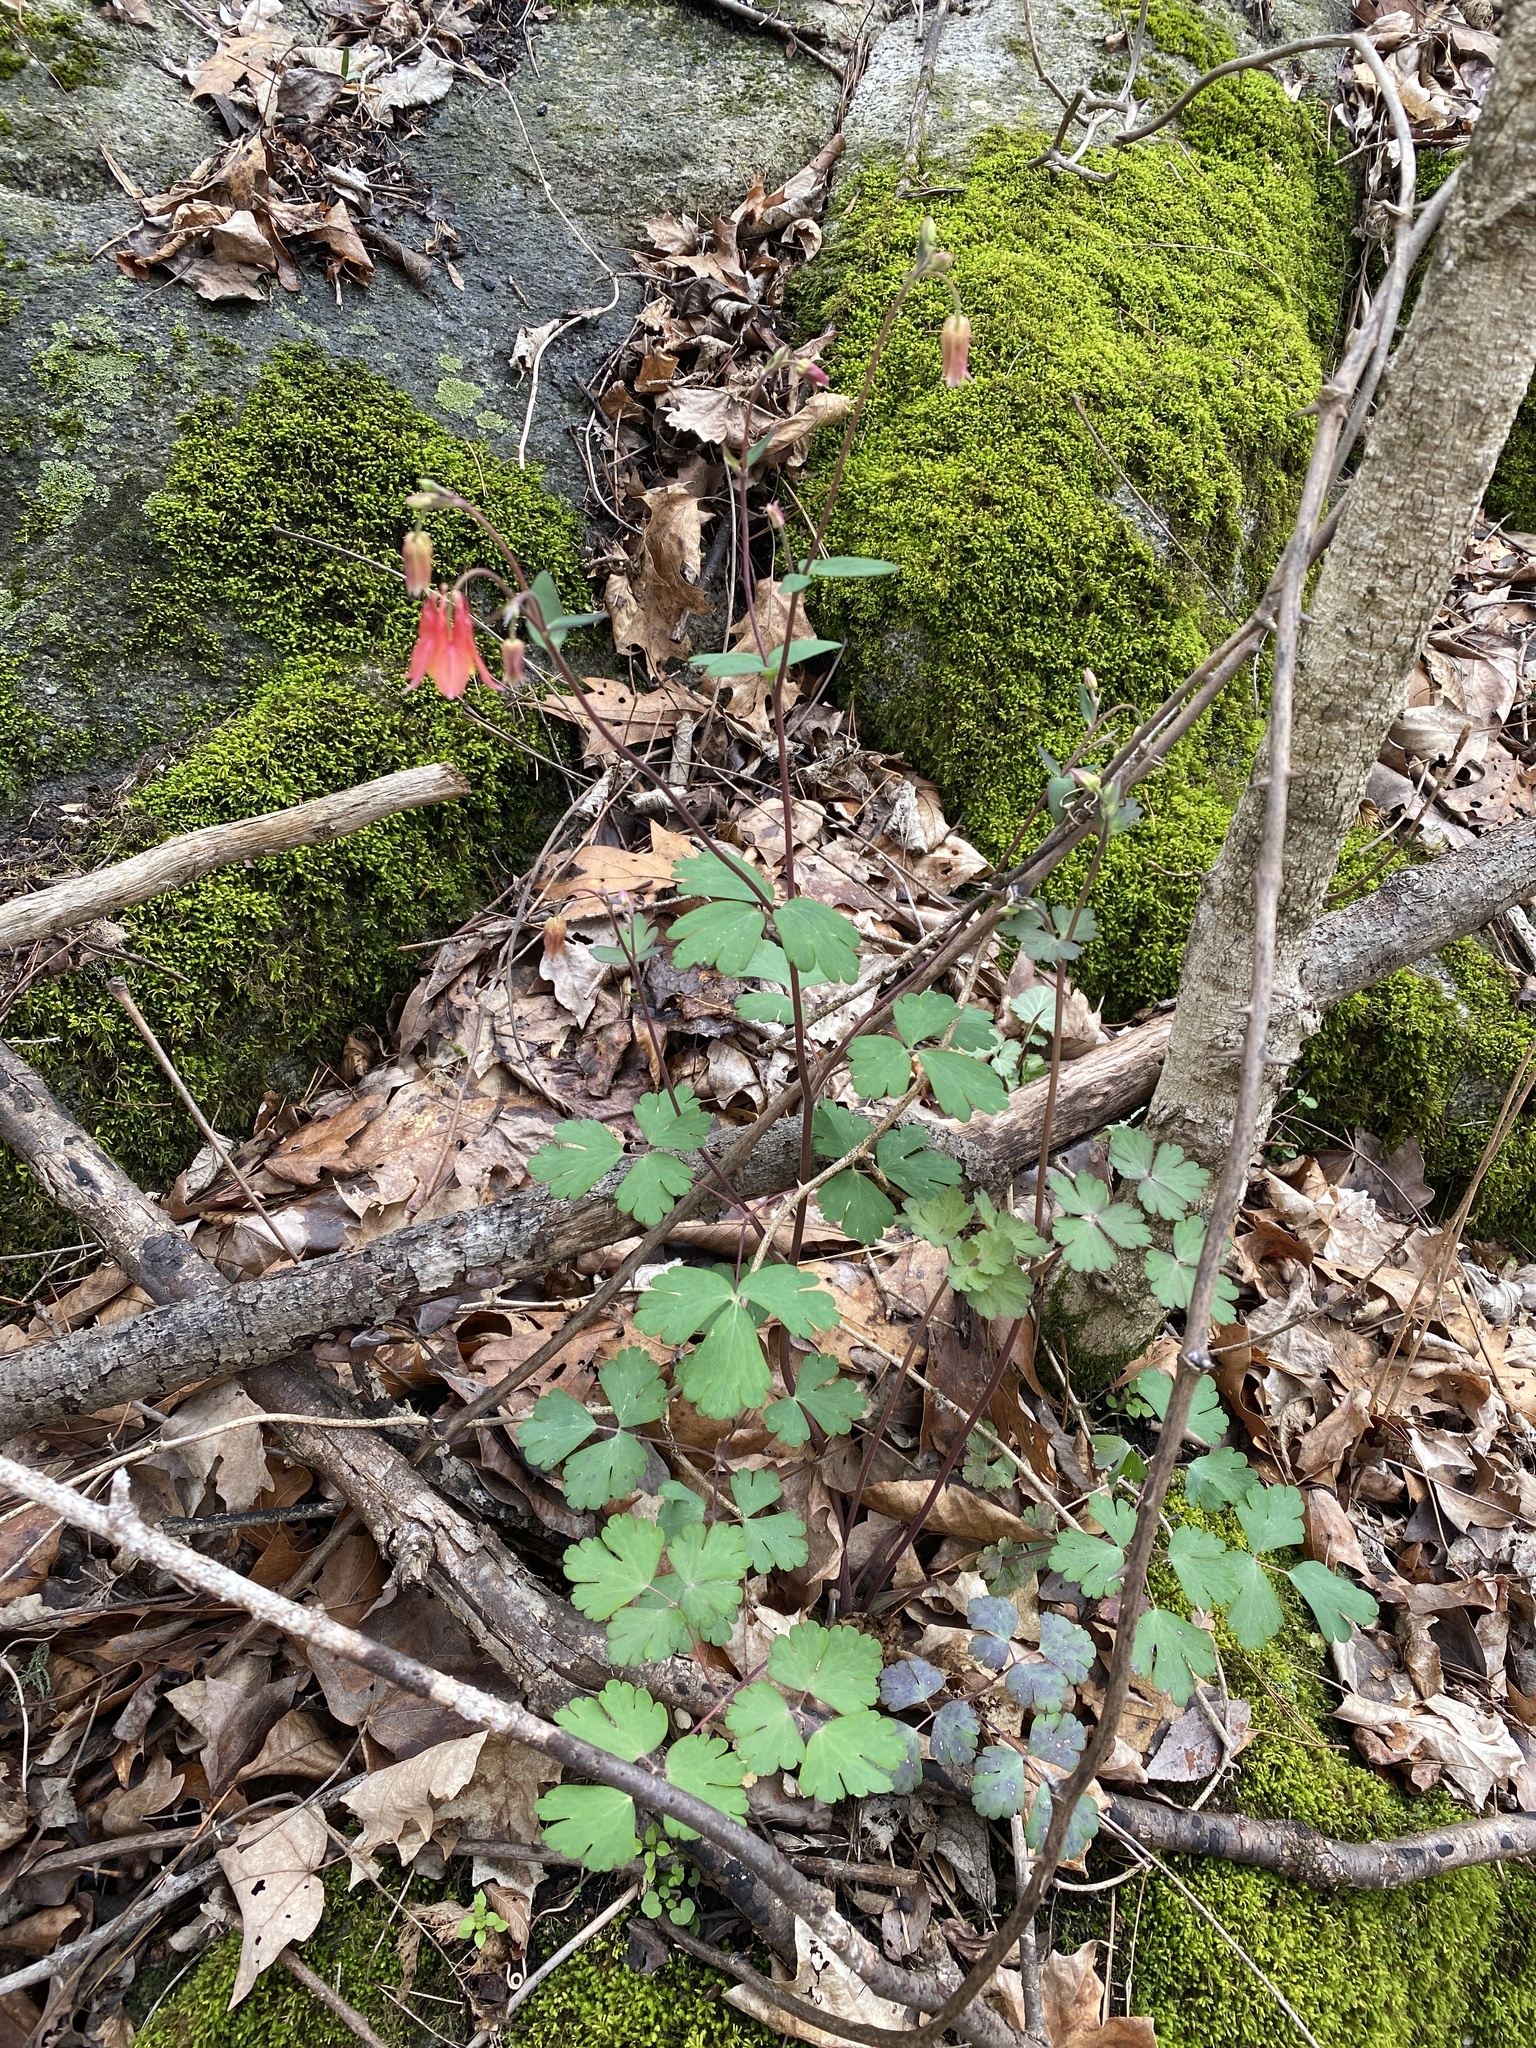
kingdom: Plantae
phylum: Tracheophyta
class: Magnoliopsida
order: Ranunculales
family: Ranunculaceae
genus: Aquilegia
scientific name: Aquilegia canadensis
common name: American columbine
